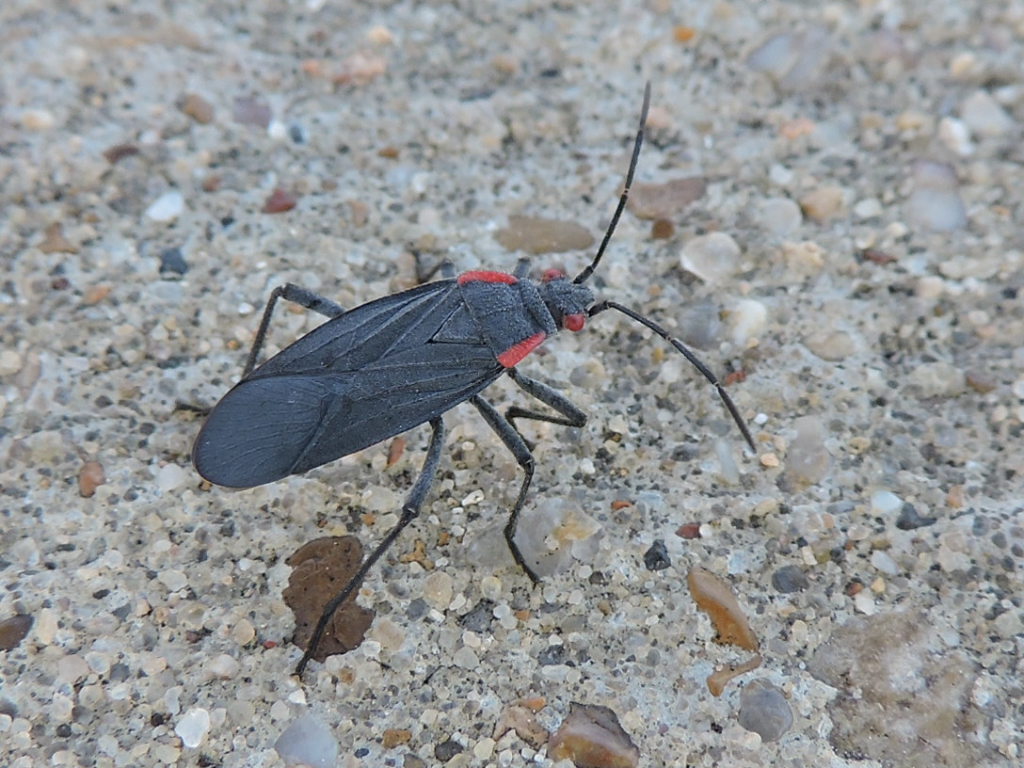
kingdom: Animalia
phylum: Arthropoda
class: Insecta
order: Hemiptera
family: Rhopalidae
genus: Jadera
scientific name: Jadera haematoloma
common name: Red-shouldered bug
